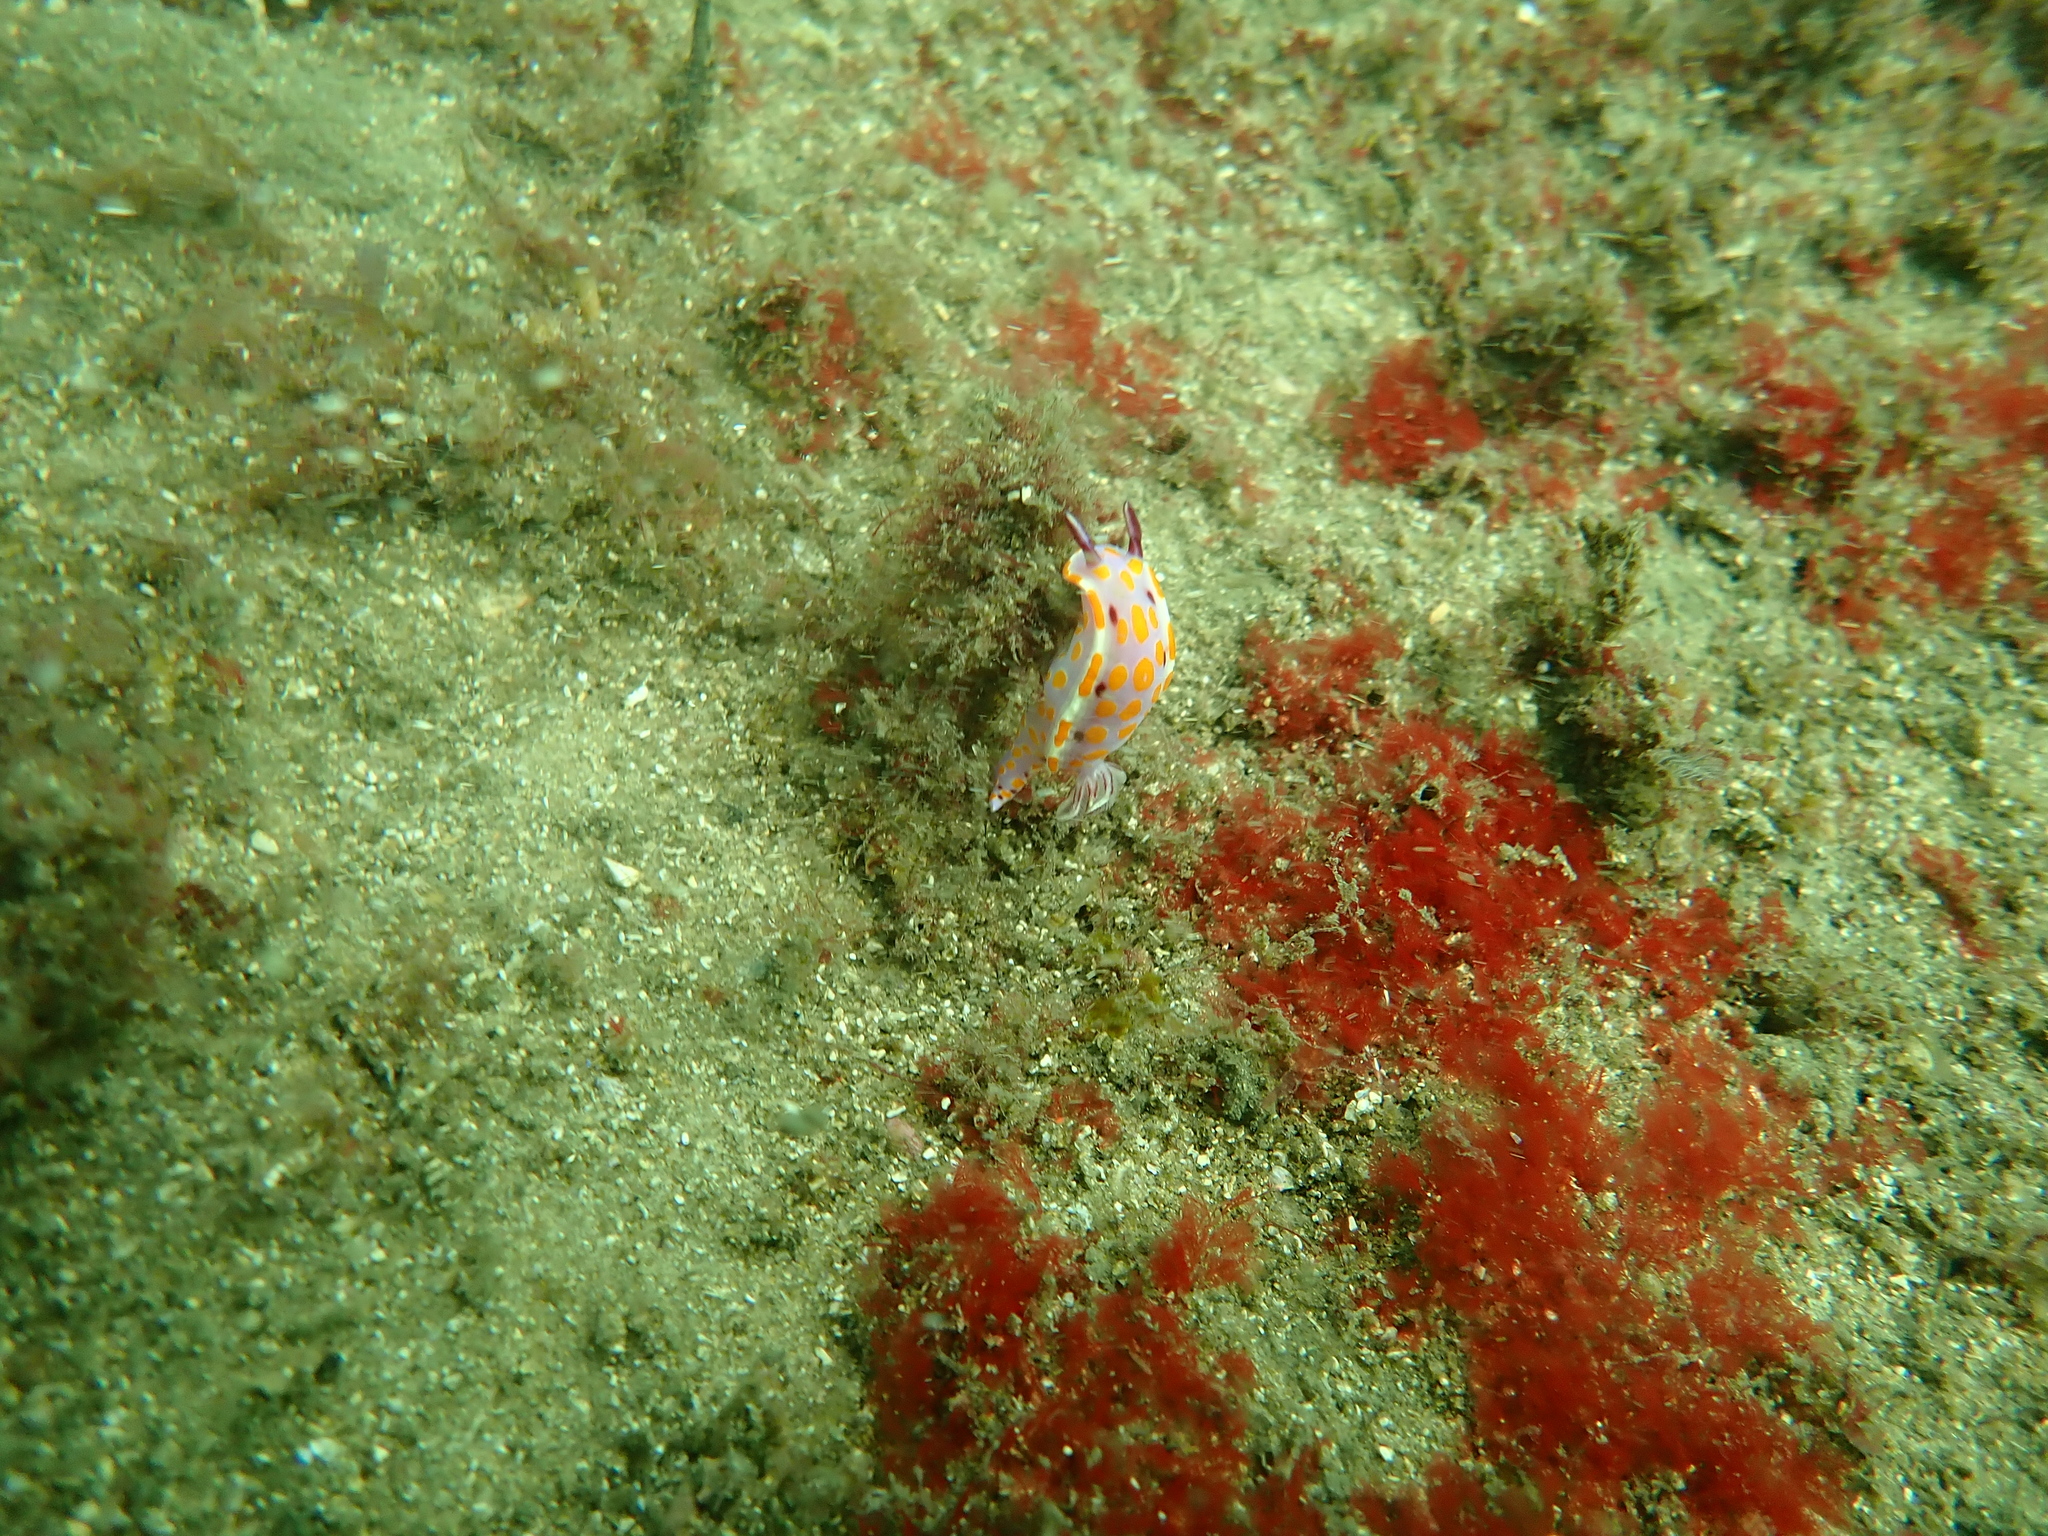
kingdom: Animalia
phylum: Mollusca
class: Gastropoda
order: Nudibranchia
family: Chromodorididae
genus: Ceratosoma
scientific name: Ceratosoma amoenum
